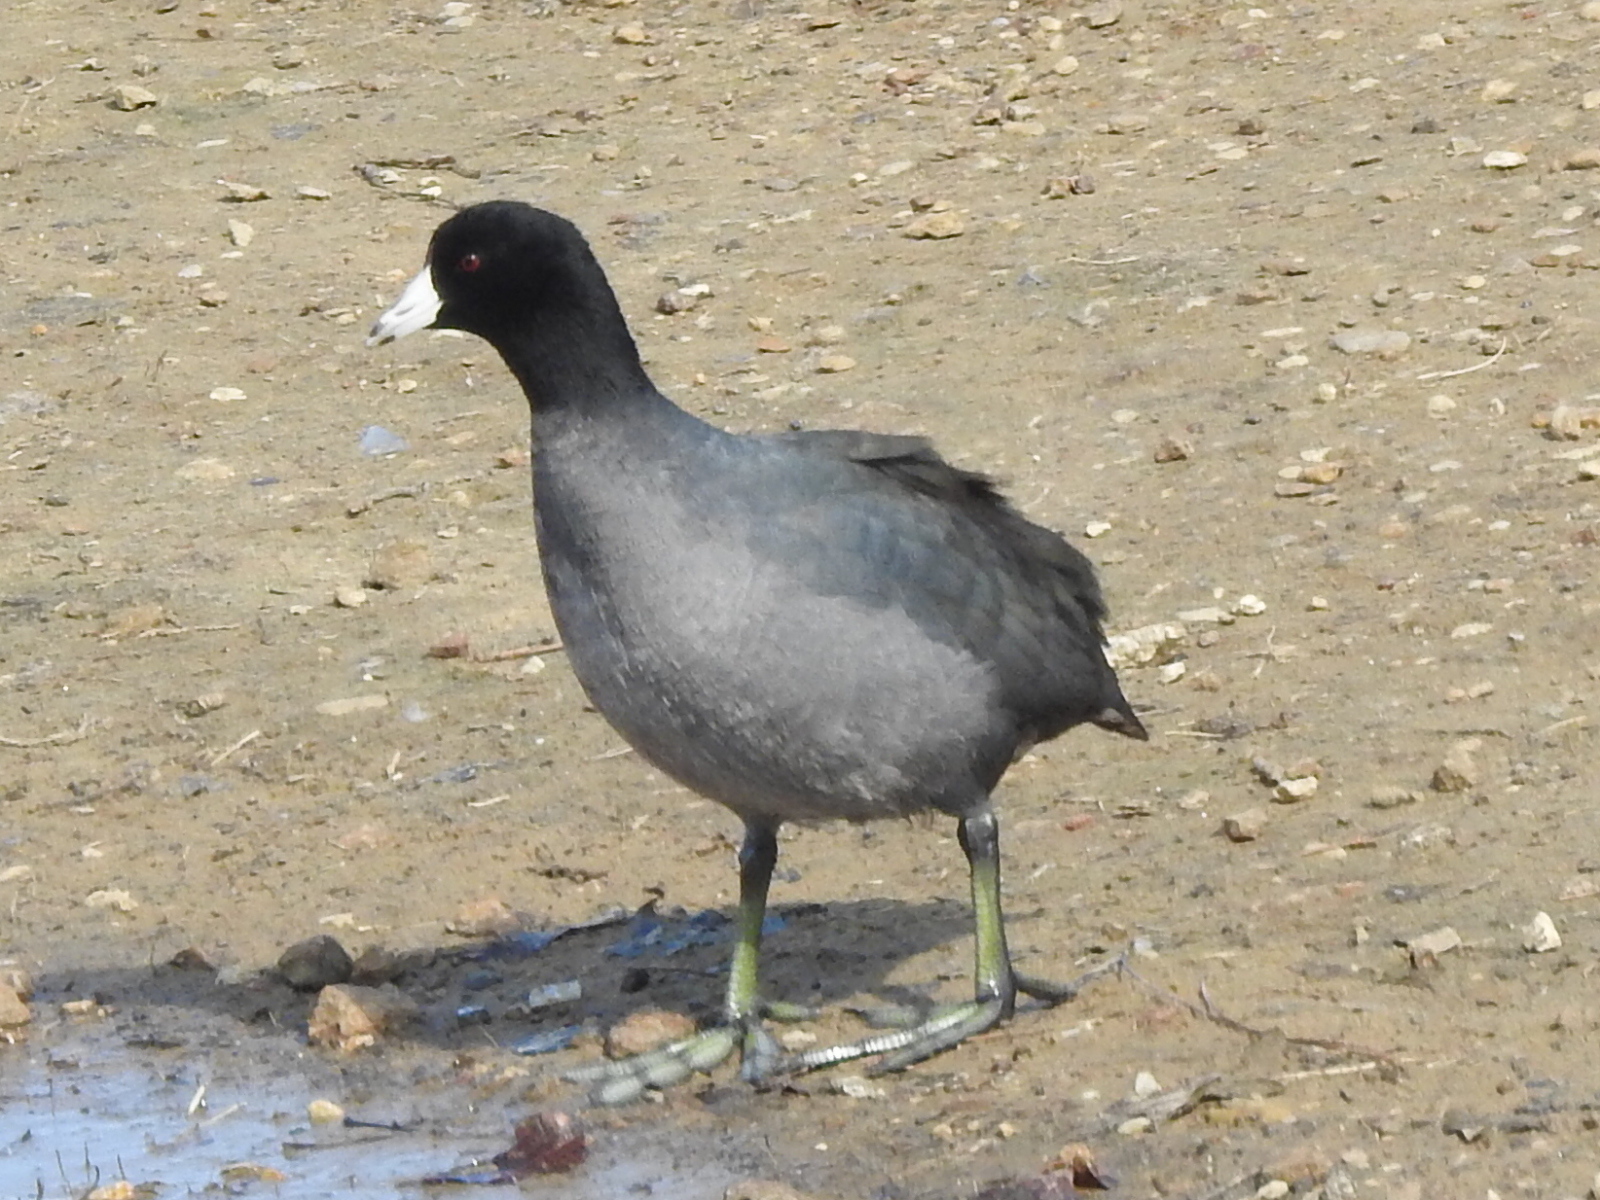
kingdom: Animalia
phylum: Chordata
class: Aves
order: Gruiformes
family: Rallidae
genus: Fulica
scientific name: Fulica americana
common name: American coot
